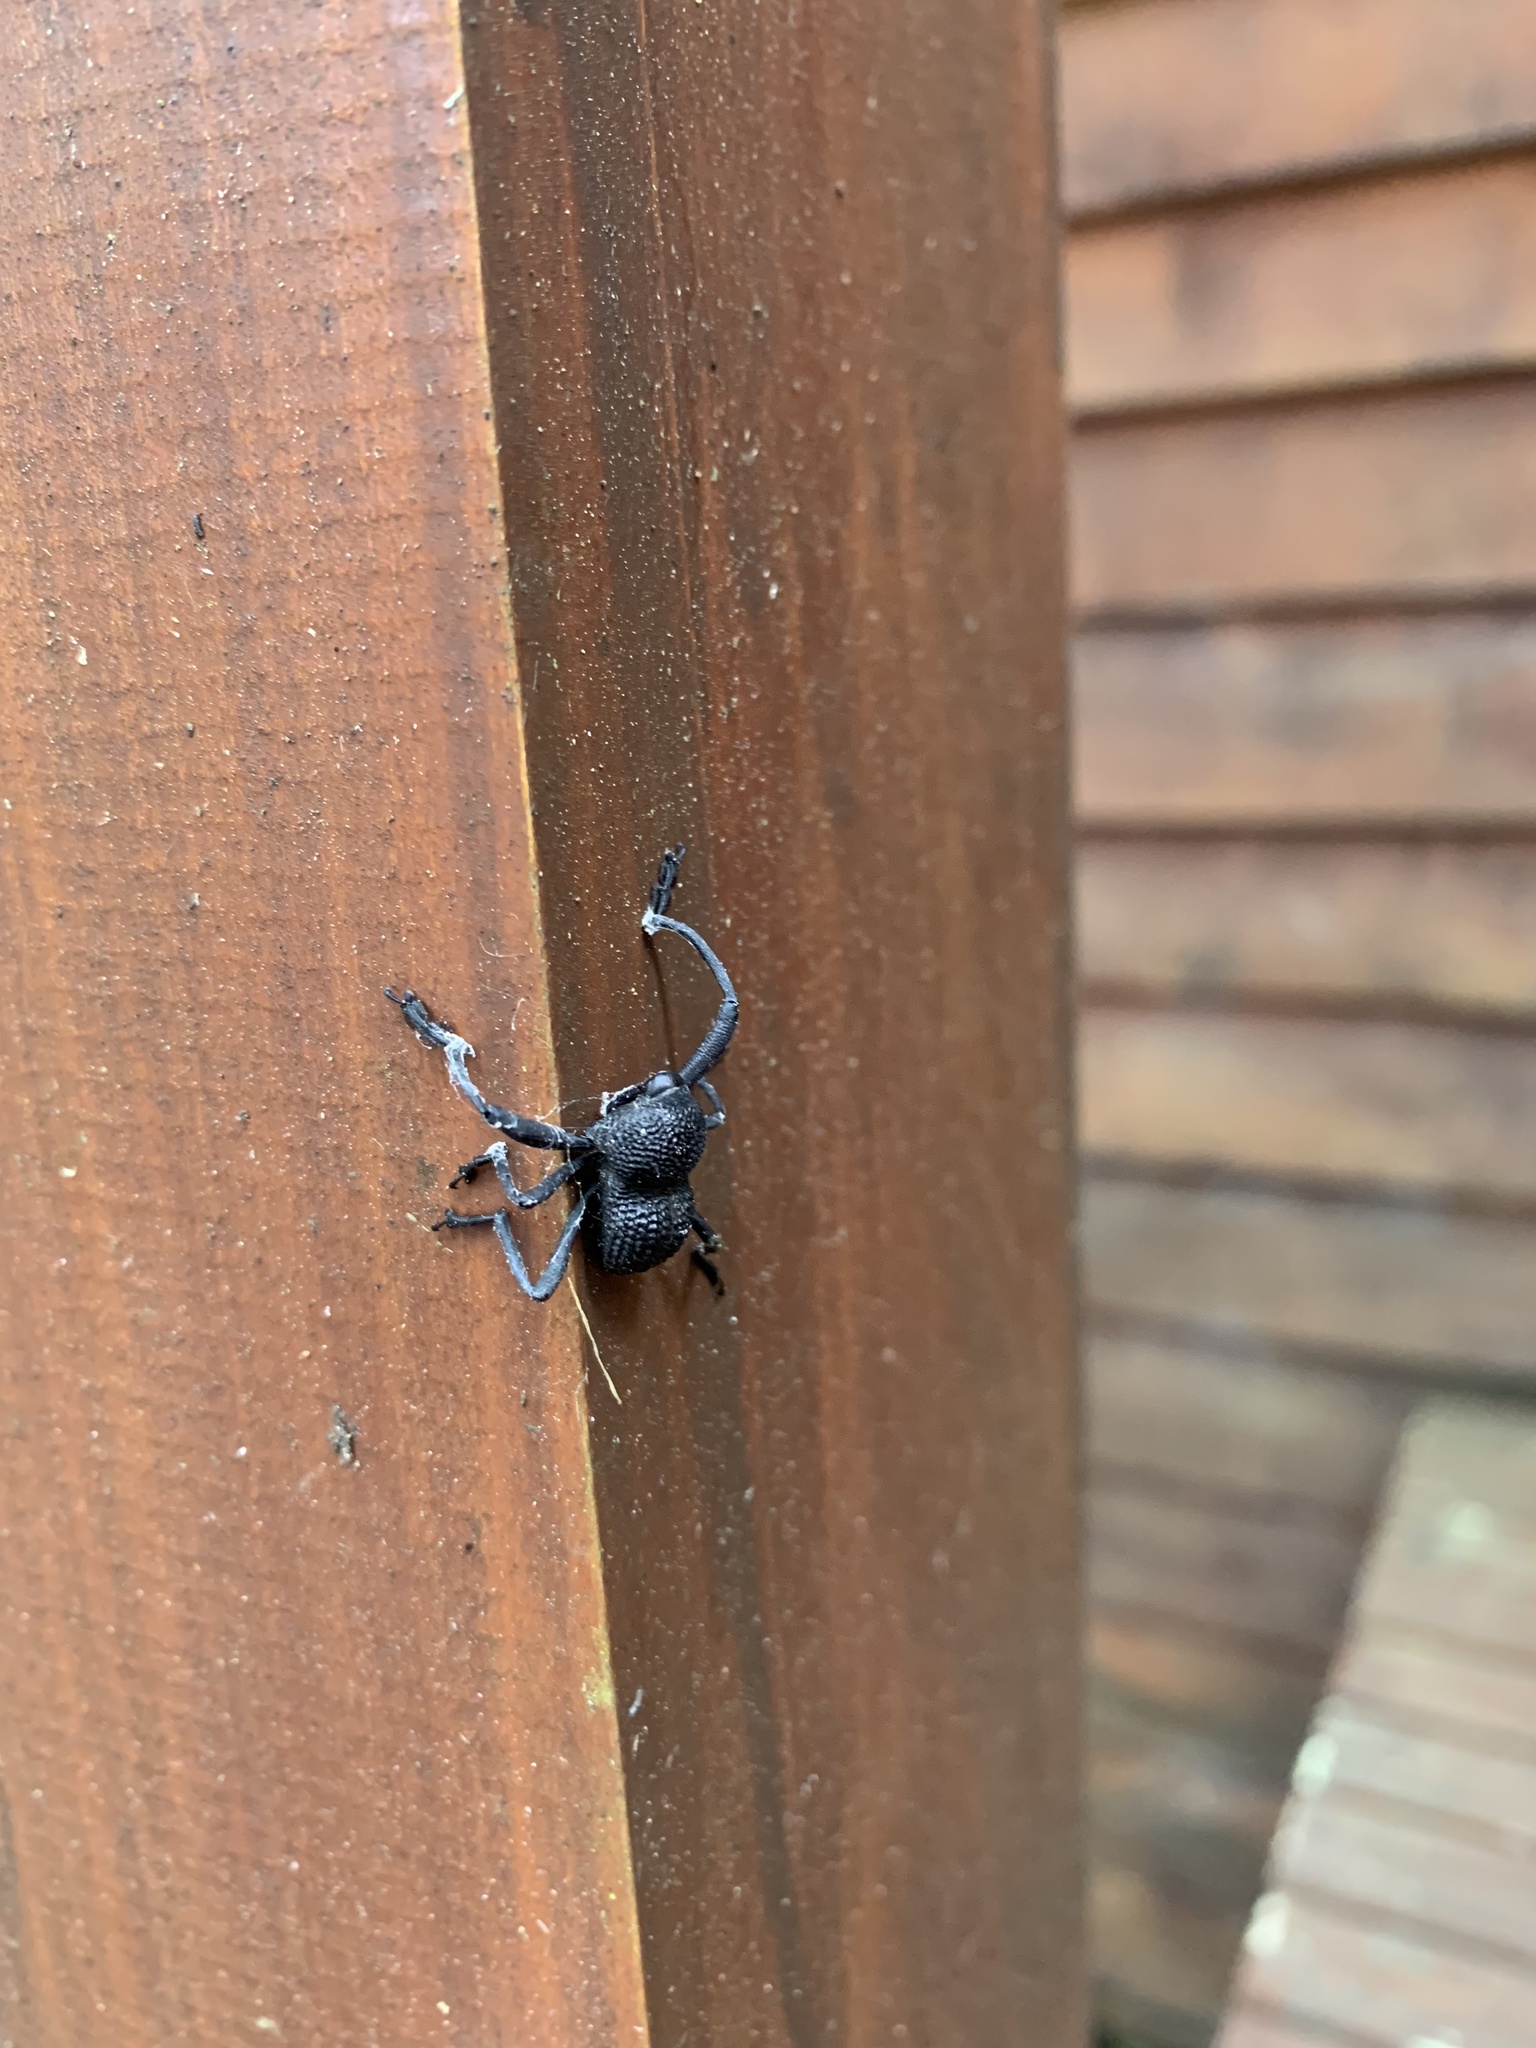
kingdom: Animalia
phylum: Arthropoda
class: Insecta
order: Coleoptera
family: Curculionidae
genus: Rhyephenes
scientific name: Rhyephenes maillei
